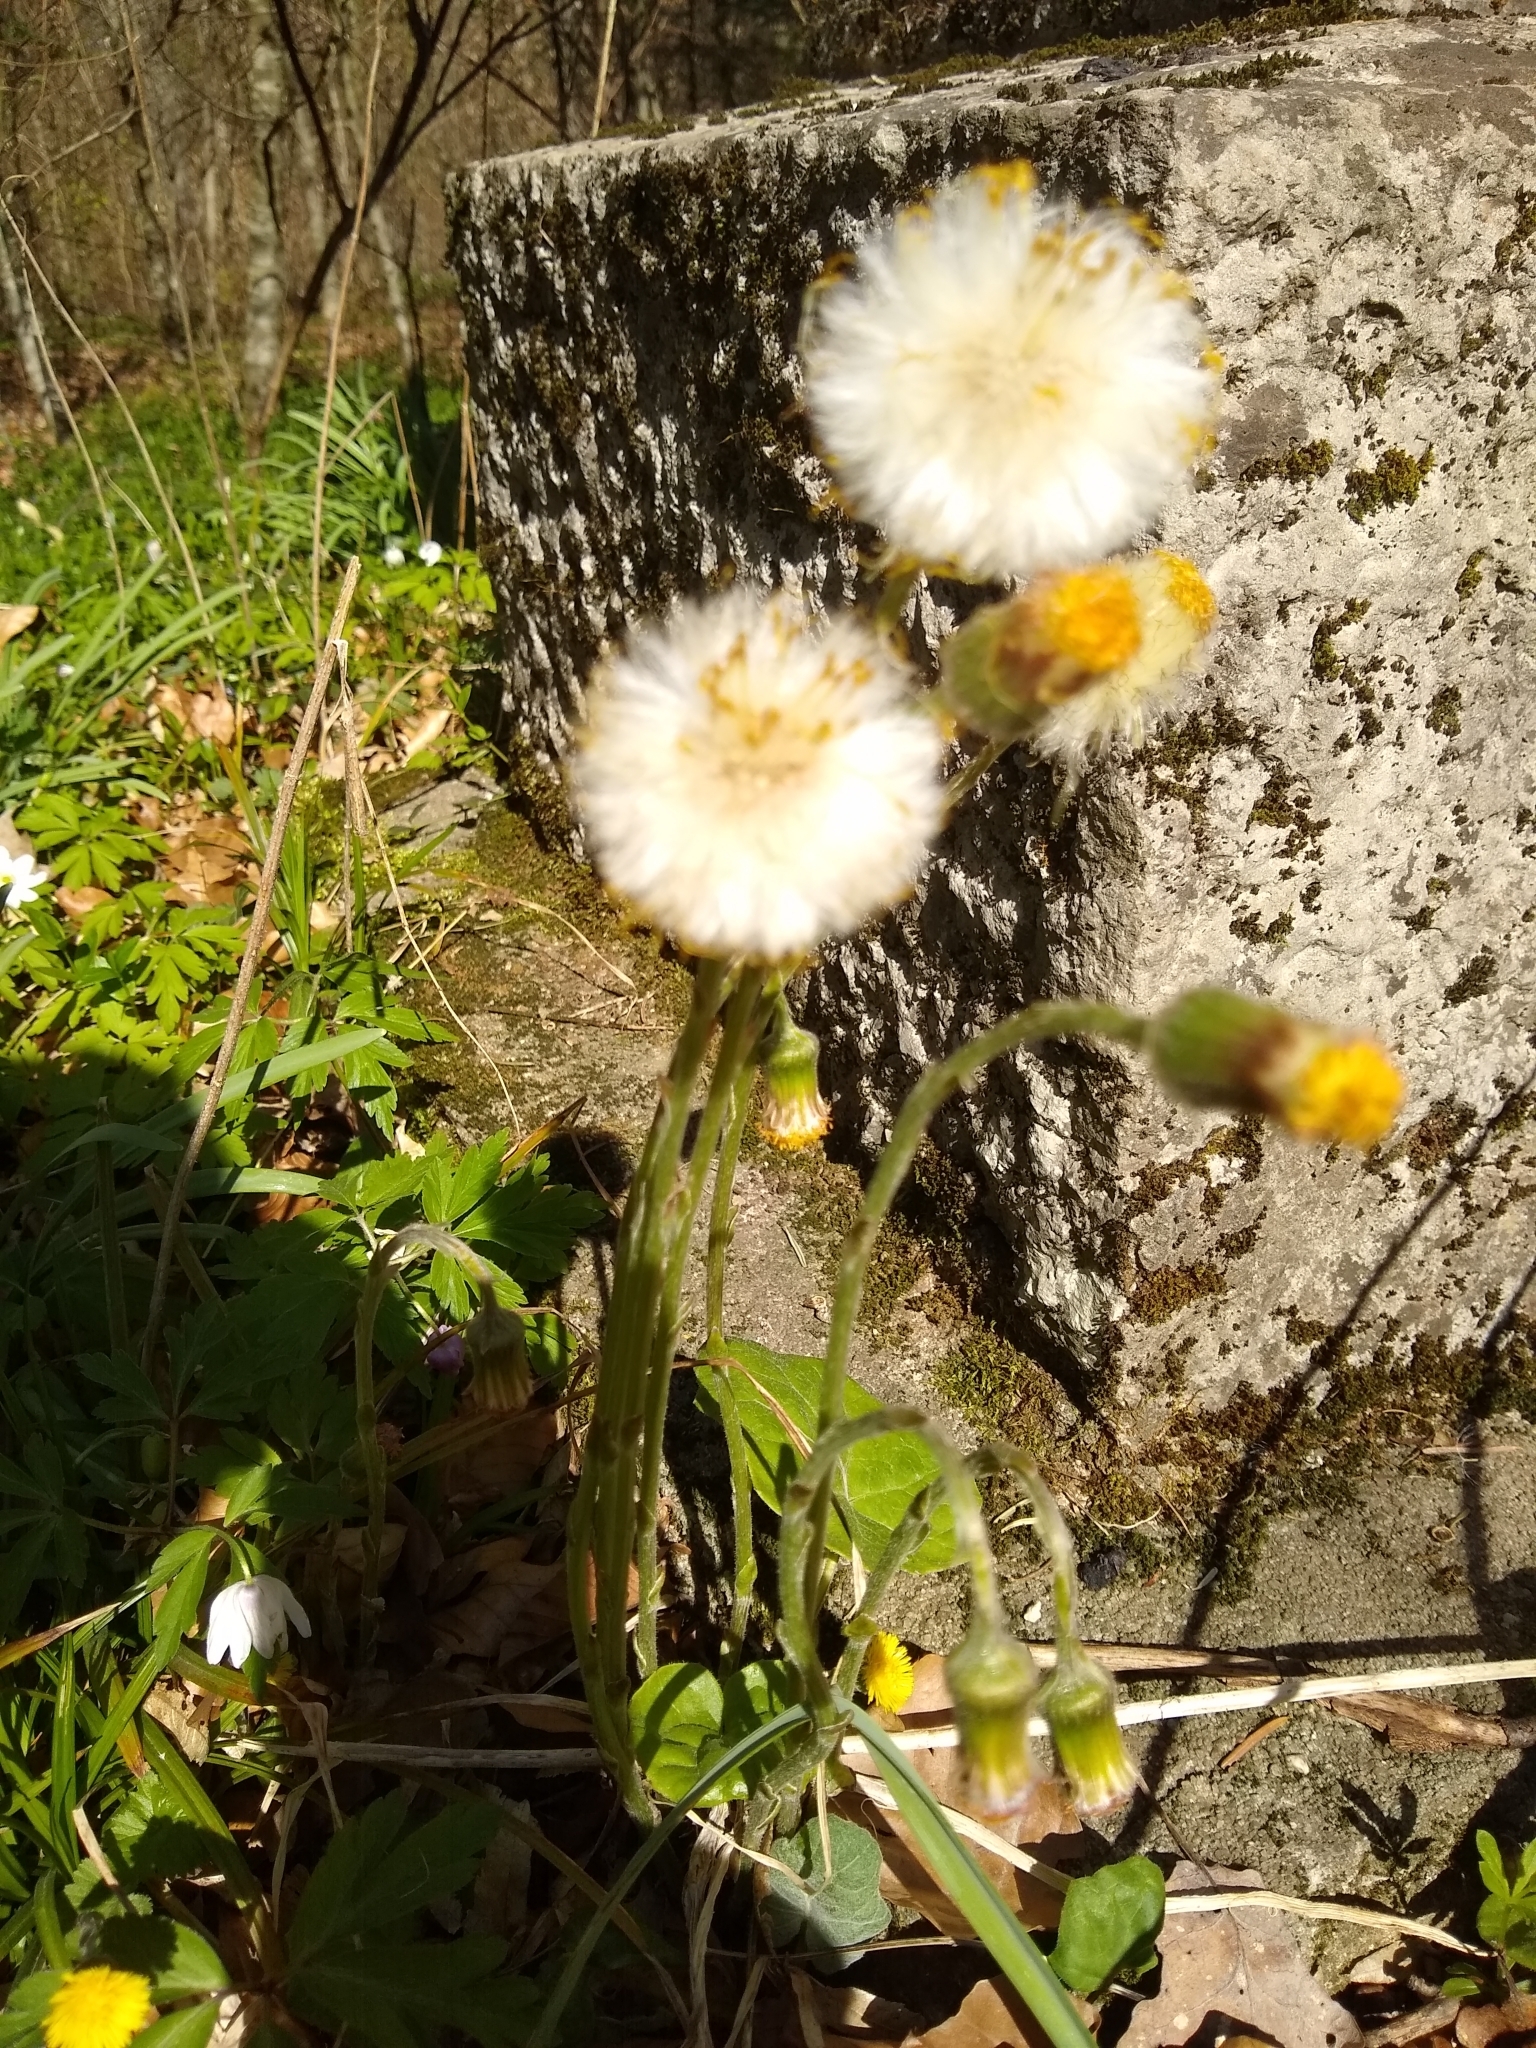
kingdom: Plantae
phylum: Tracheophyta
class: Magnoliopsida
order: Asterales
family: Asteraceae
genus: Tussilago
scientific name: Tussilago farfara
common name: Coltsfoot
